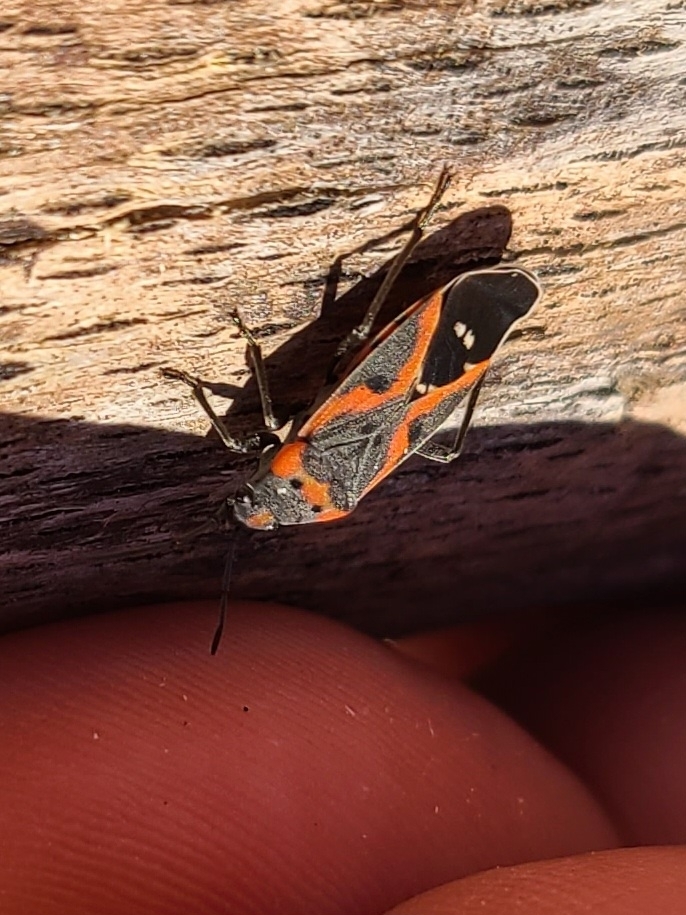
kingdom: Animalia
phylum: Arthropoda
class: Insecta
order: Hemiptera
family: Lygaeidae
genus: Lygaeus
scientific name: Lygaeus kalmii
